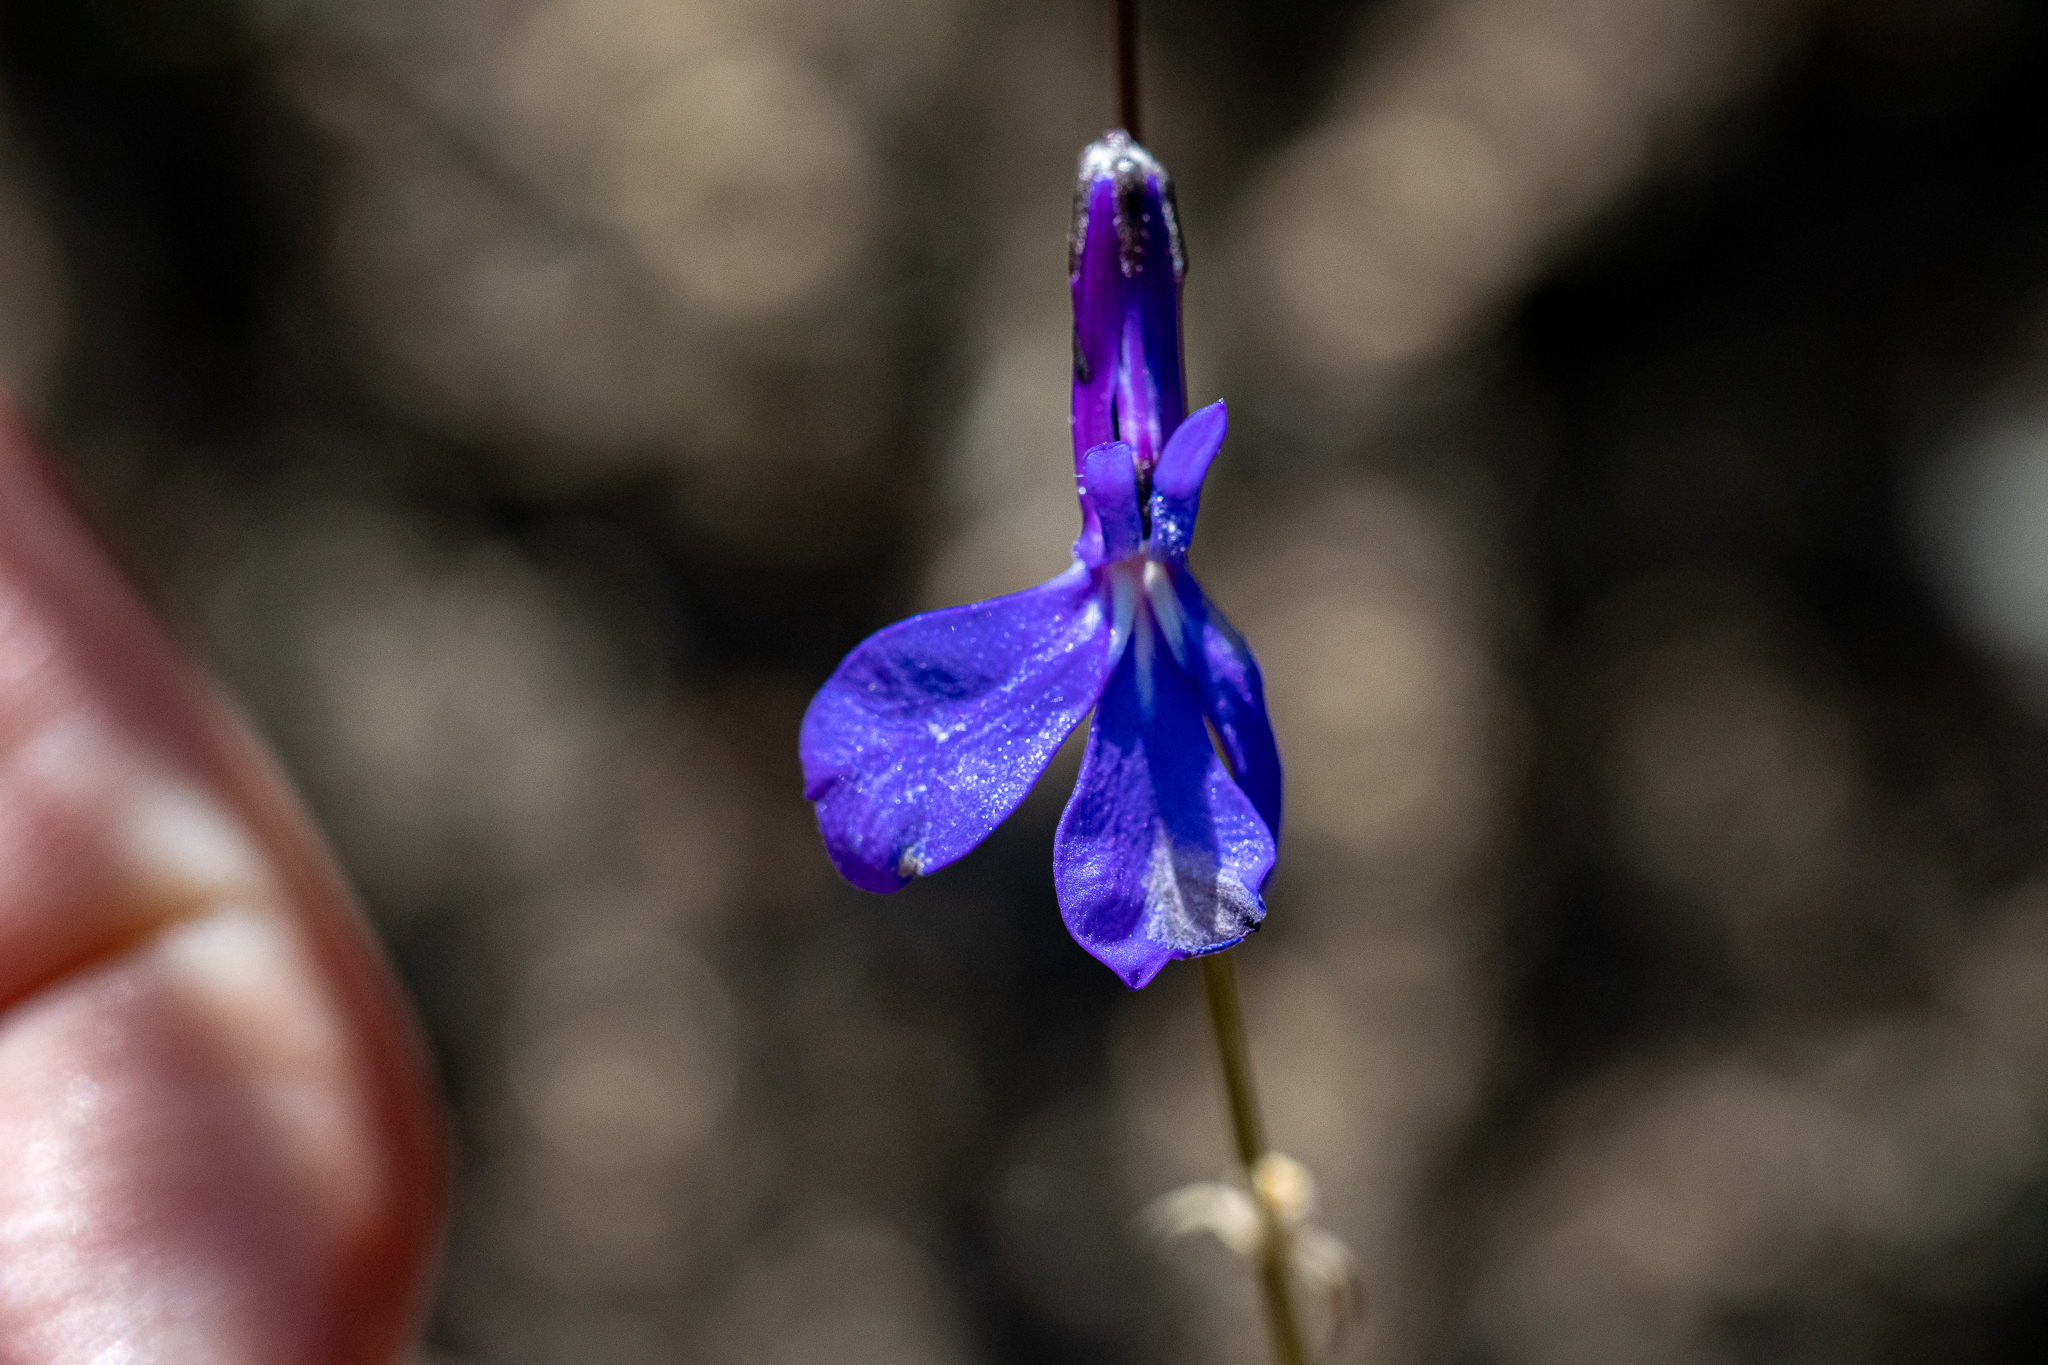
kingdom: Plantae
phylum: Tracheophyta
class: Magnoliopsida
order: Asterales
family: Campanulaceae
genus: Lobelia
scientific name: Lobelia chamaepitys
